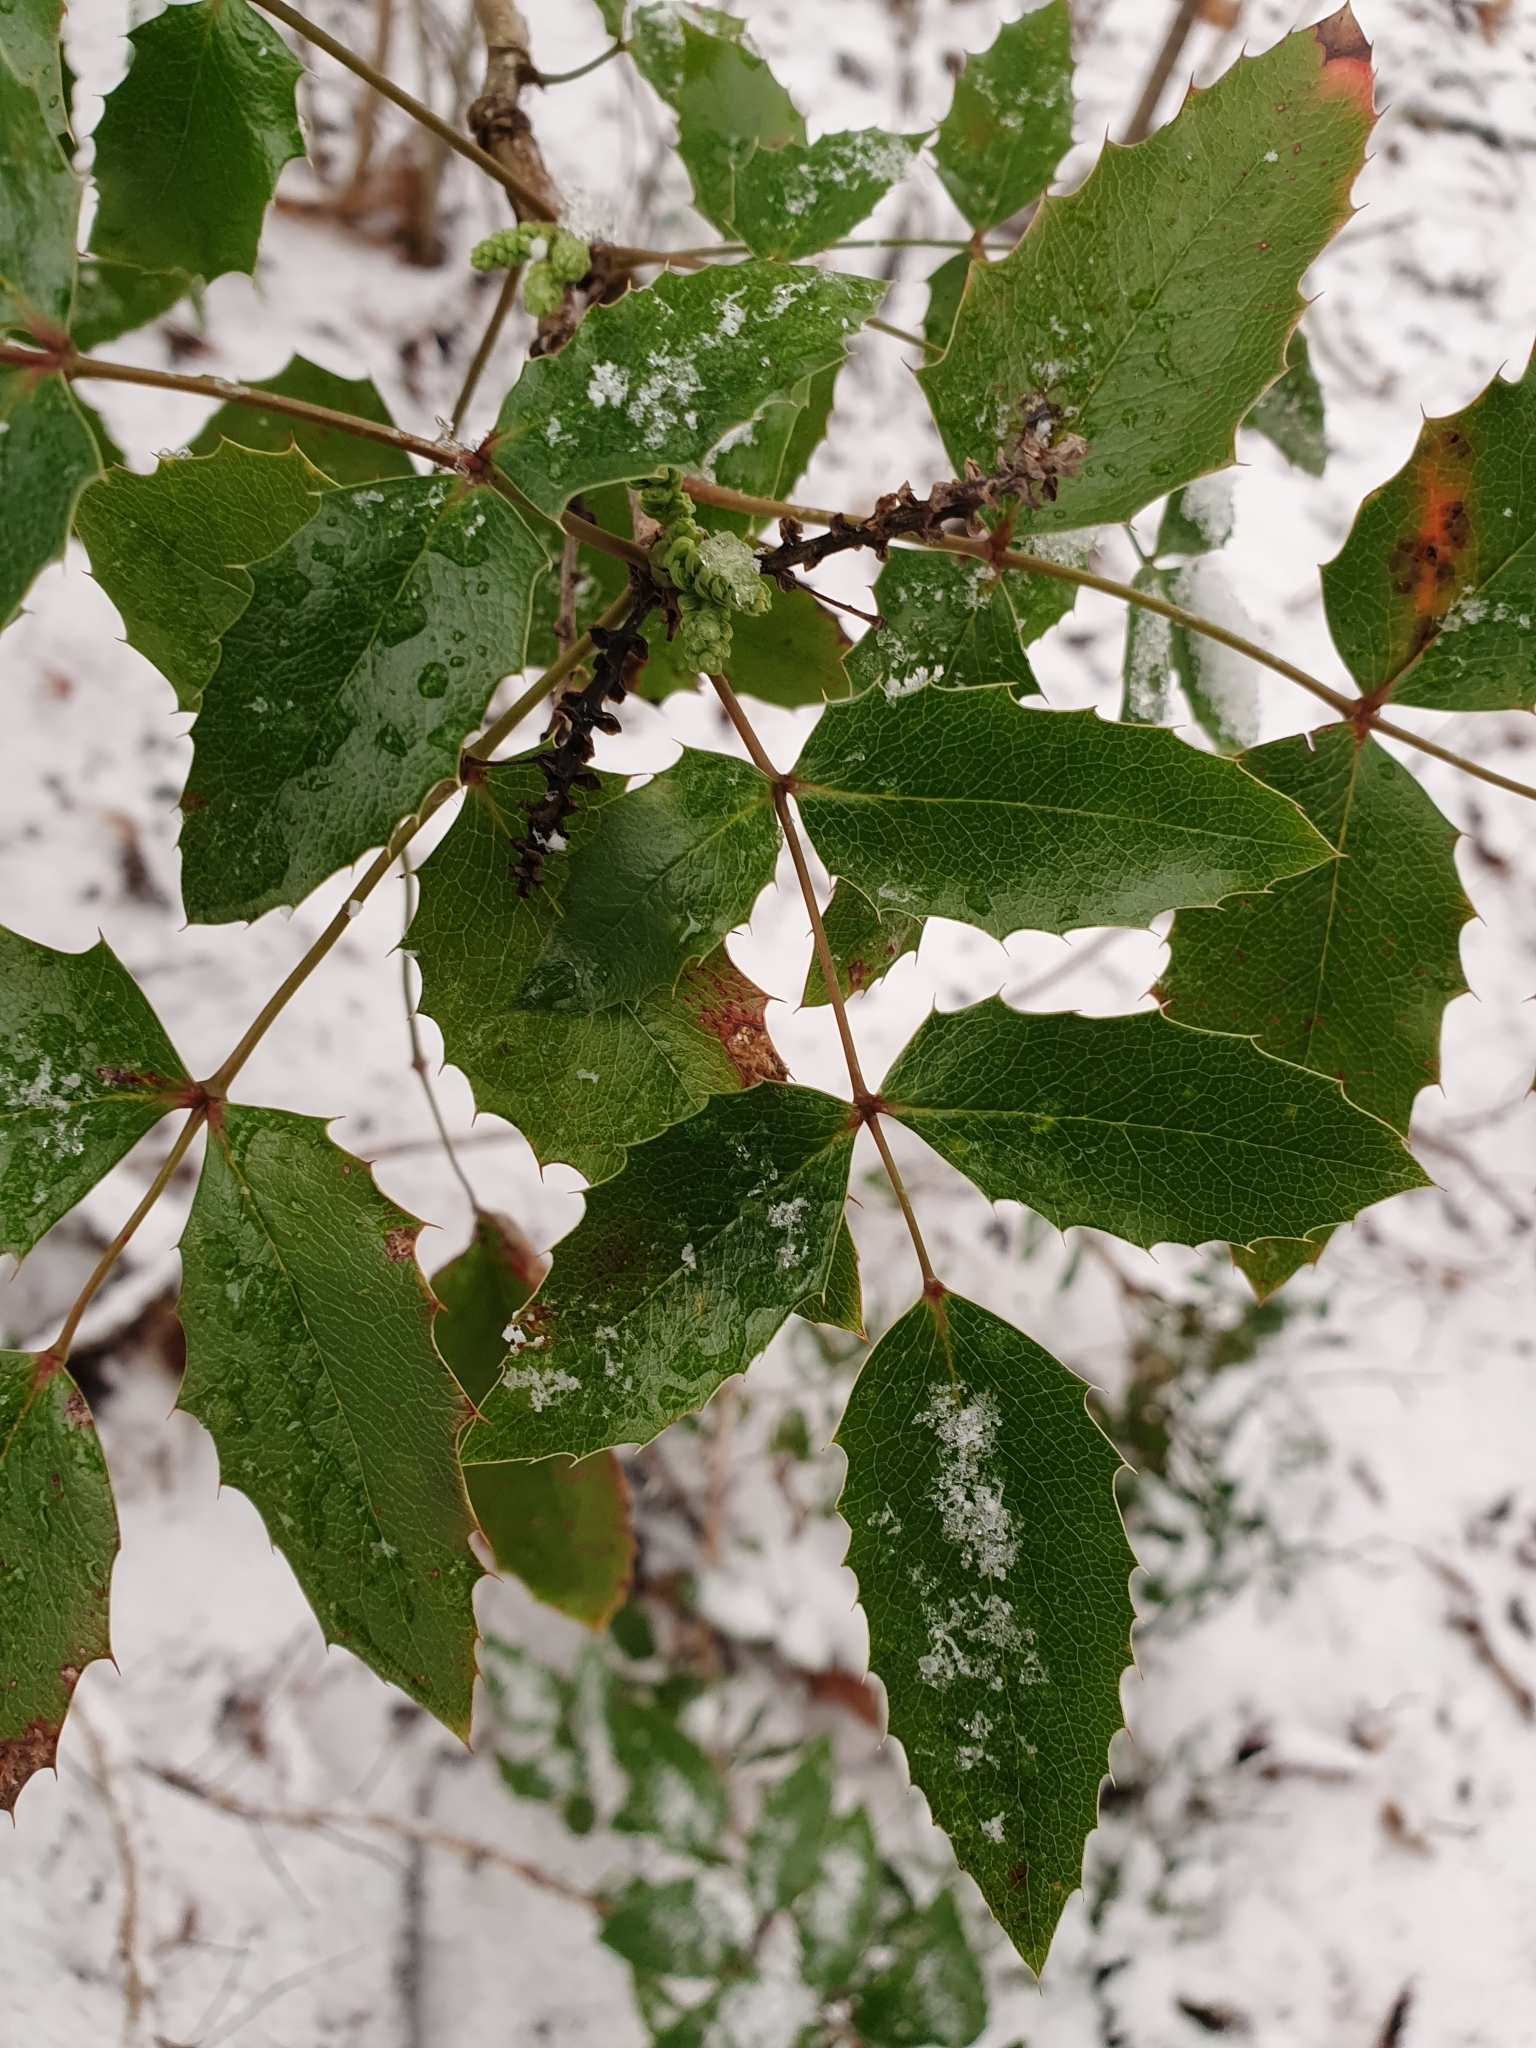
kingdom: Plantae
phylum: Tracheophyta
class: Magnoliopsida
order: Ranunculales
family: Berberidaceae
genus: Mahonia
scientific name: Mahonia aquifolium
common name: Oregon-grape
